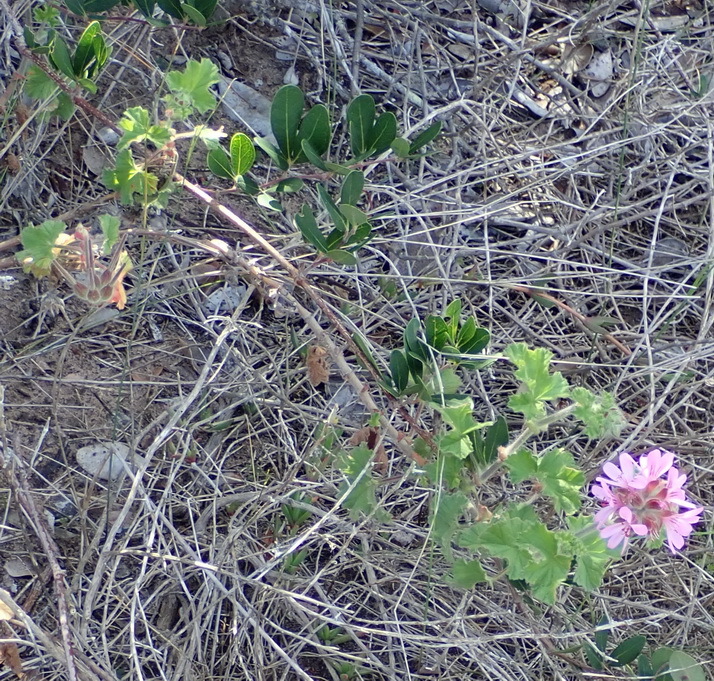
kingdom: Plantae
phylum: Tracheophyta
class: Magnoliopsida
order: Geraniales
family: Geraniaceae
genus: Pelargonium
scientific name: Pelargonium capitatum
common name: Rose scented geranium
